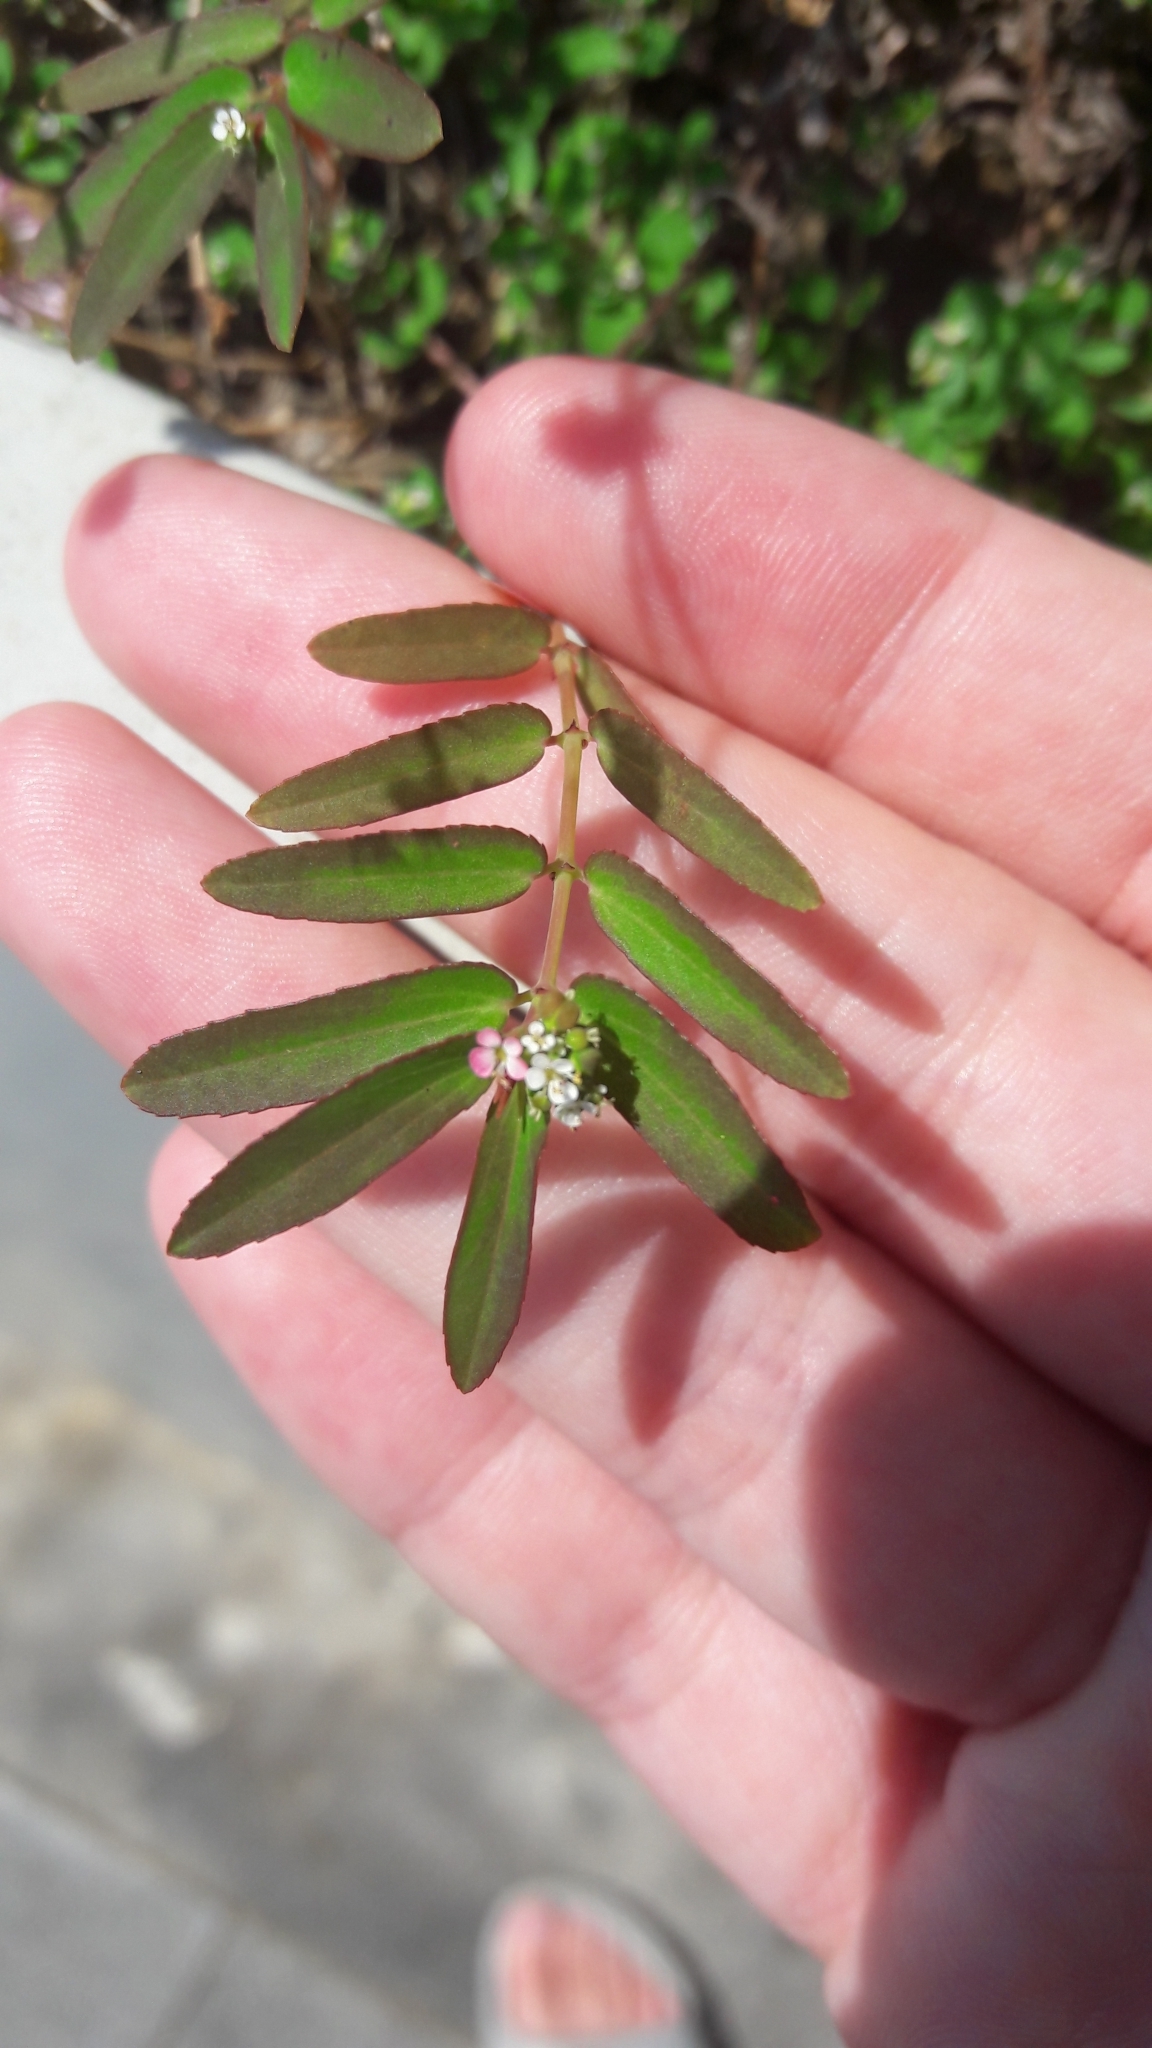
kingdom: Plantae
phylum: Tracheophyta
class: Magnoliopsida
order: Malpighiales
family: Euphorbiaceae
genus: Euphorbia
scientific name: Euphorbia hypericifolia
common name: Graceful sandmat
